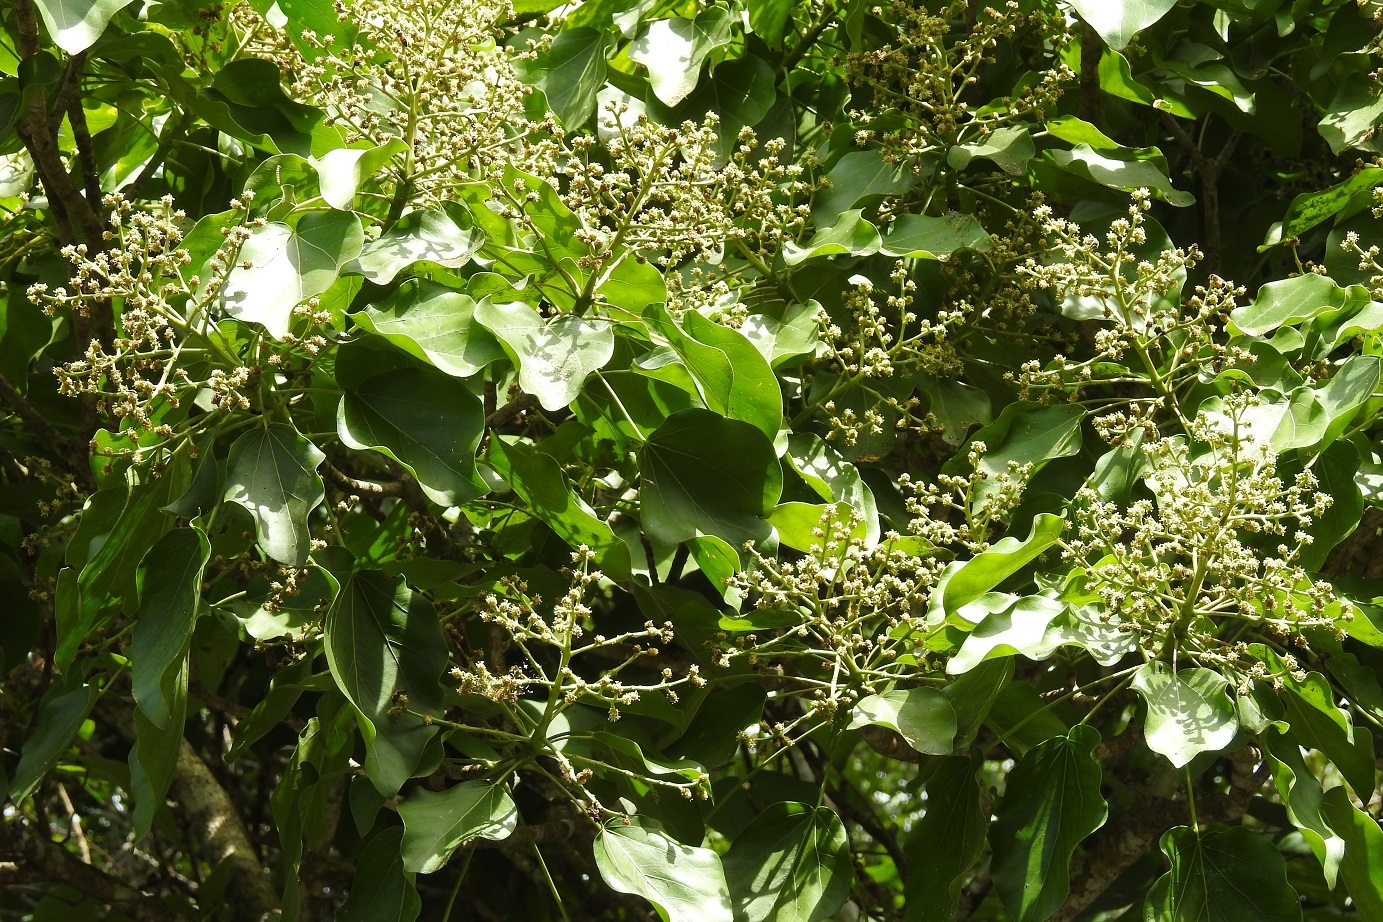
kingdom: Plantae
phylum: Tracheophyta
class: Magnoliopsida
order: Apiales
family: Araliaceae
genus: Oreopanax
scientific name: Oreopanax platyphyllus
